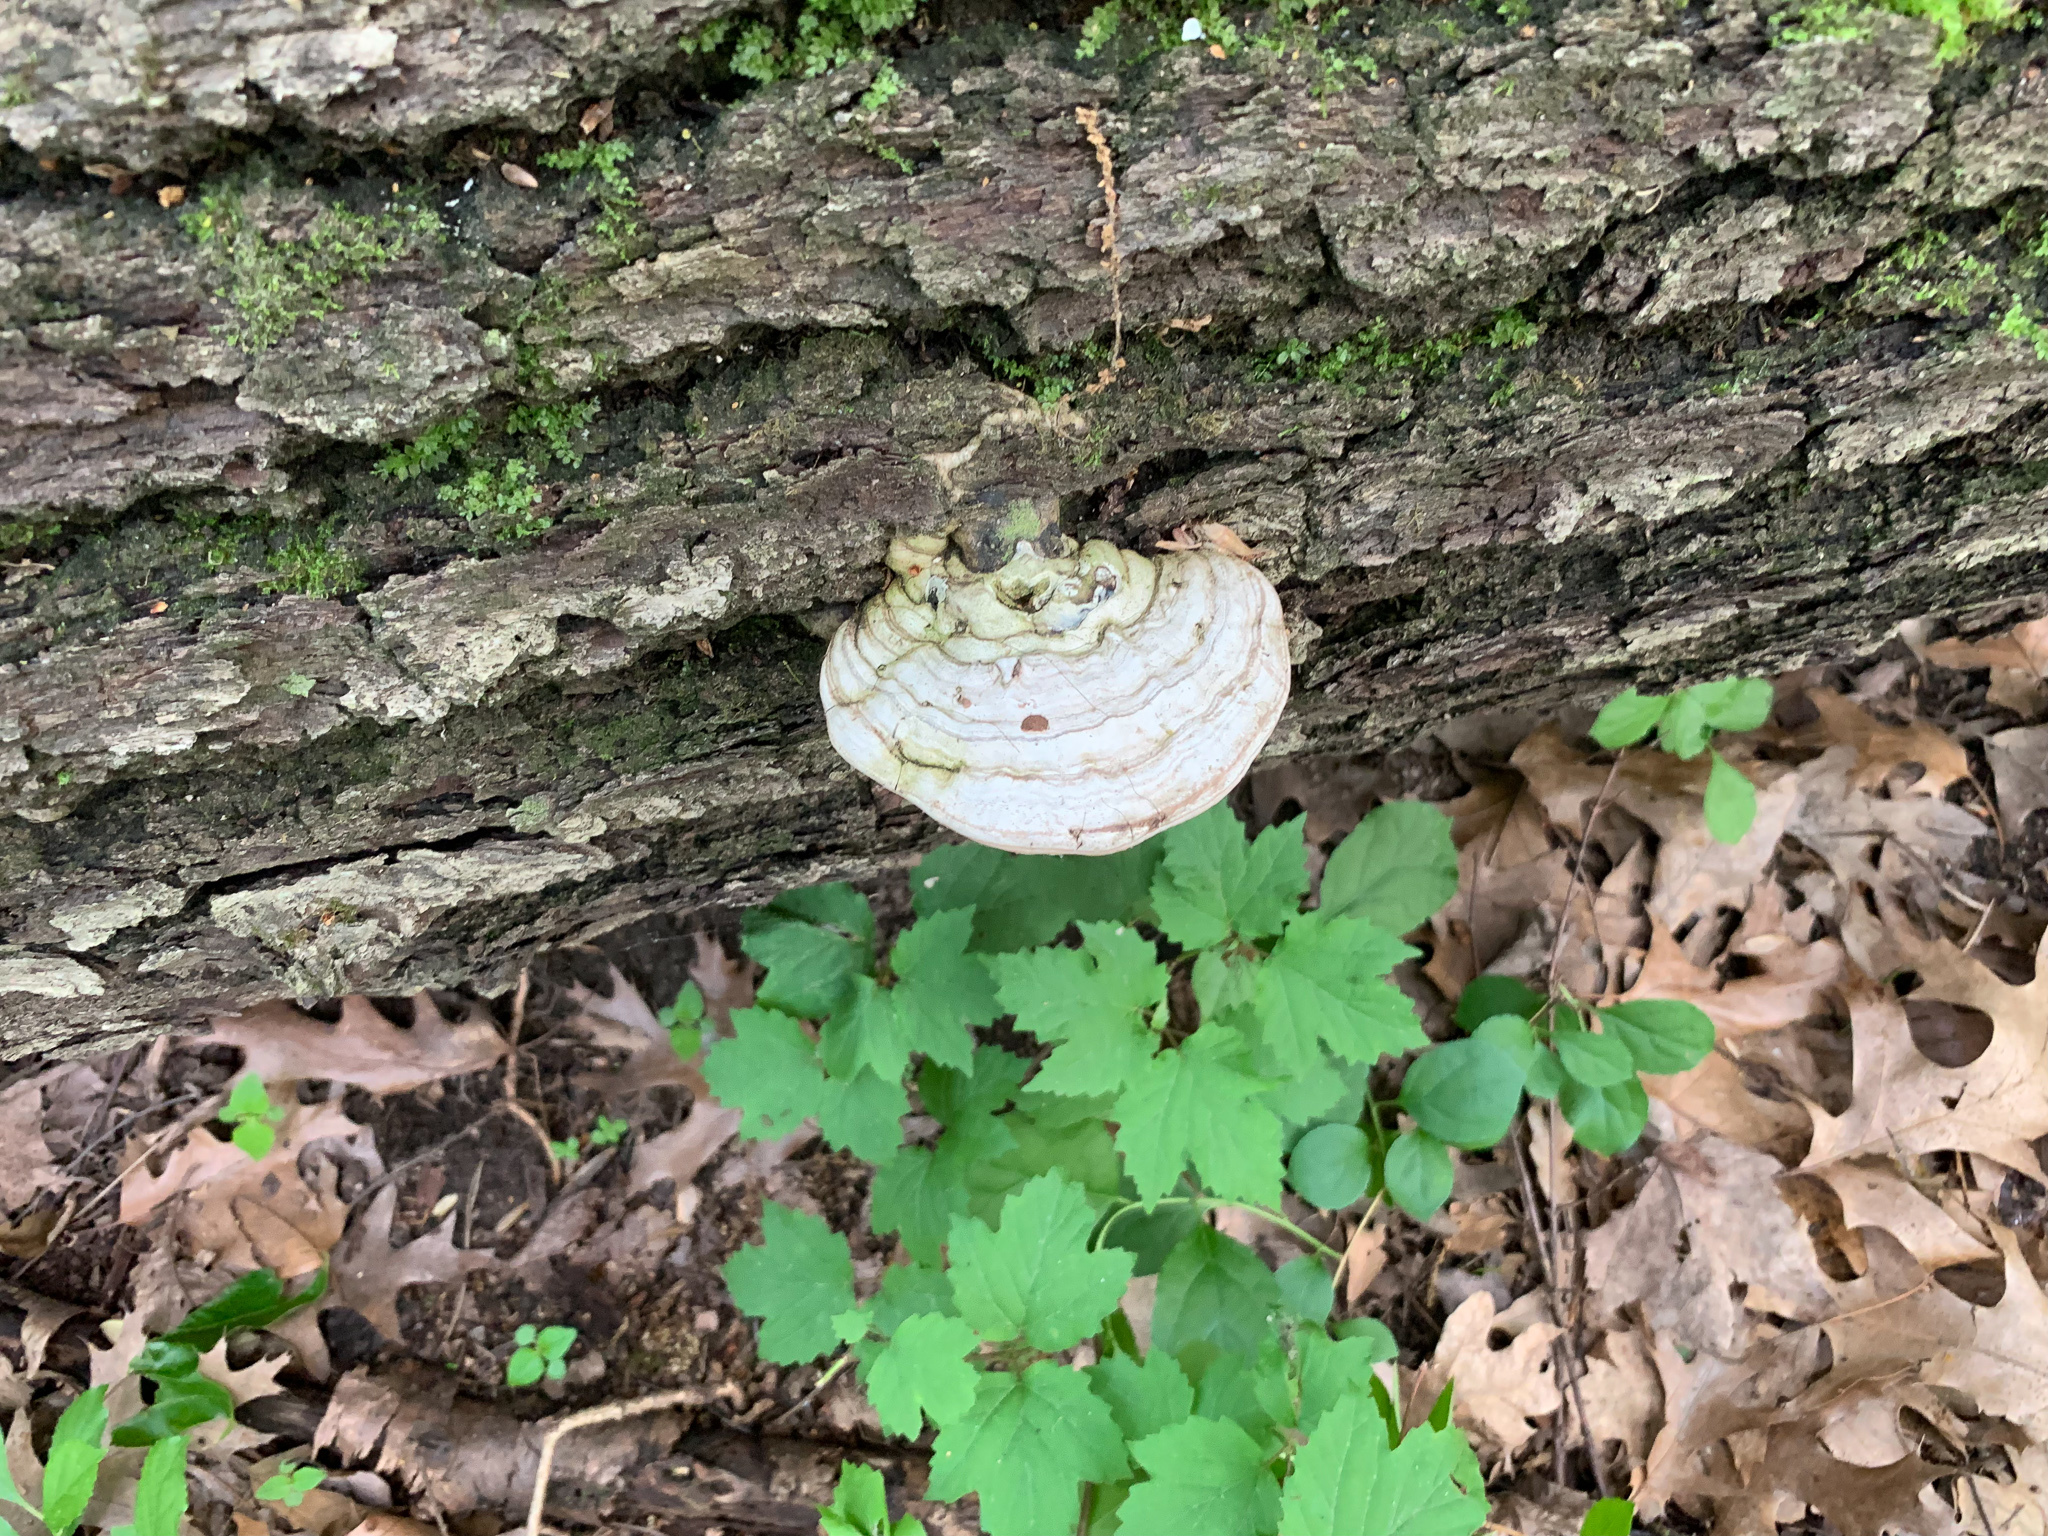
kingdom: Fungi
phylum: Basidiomycota
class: Agaricomycetes
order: Polyporales
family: Polyporaceae
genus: Ganoderma
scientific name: Ganoderma applanatum
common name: Artist's bracket
